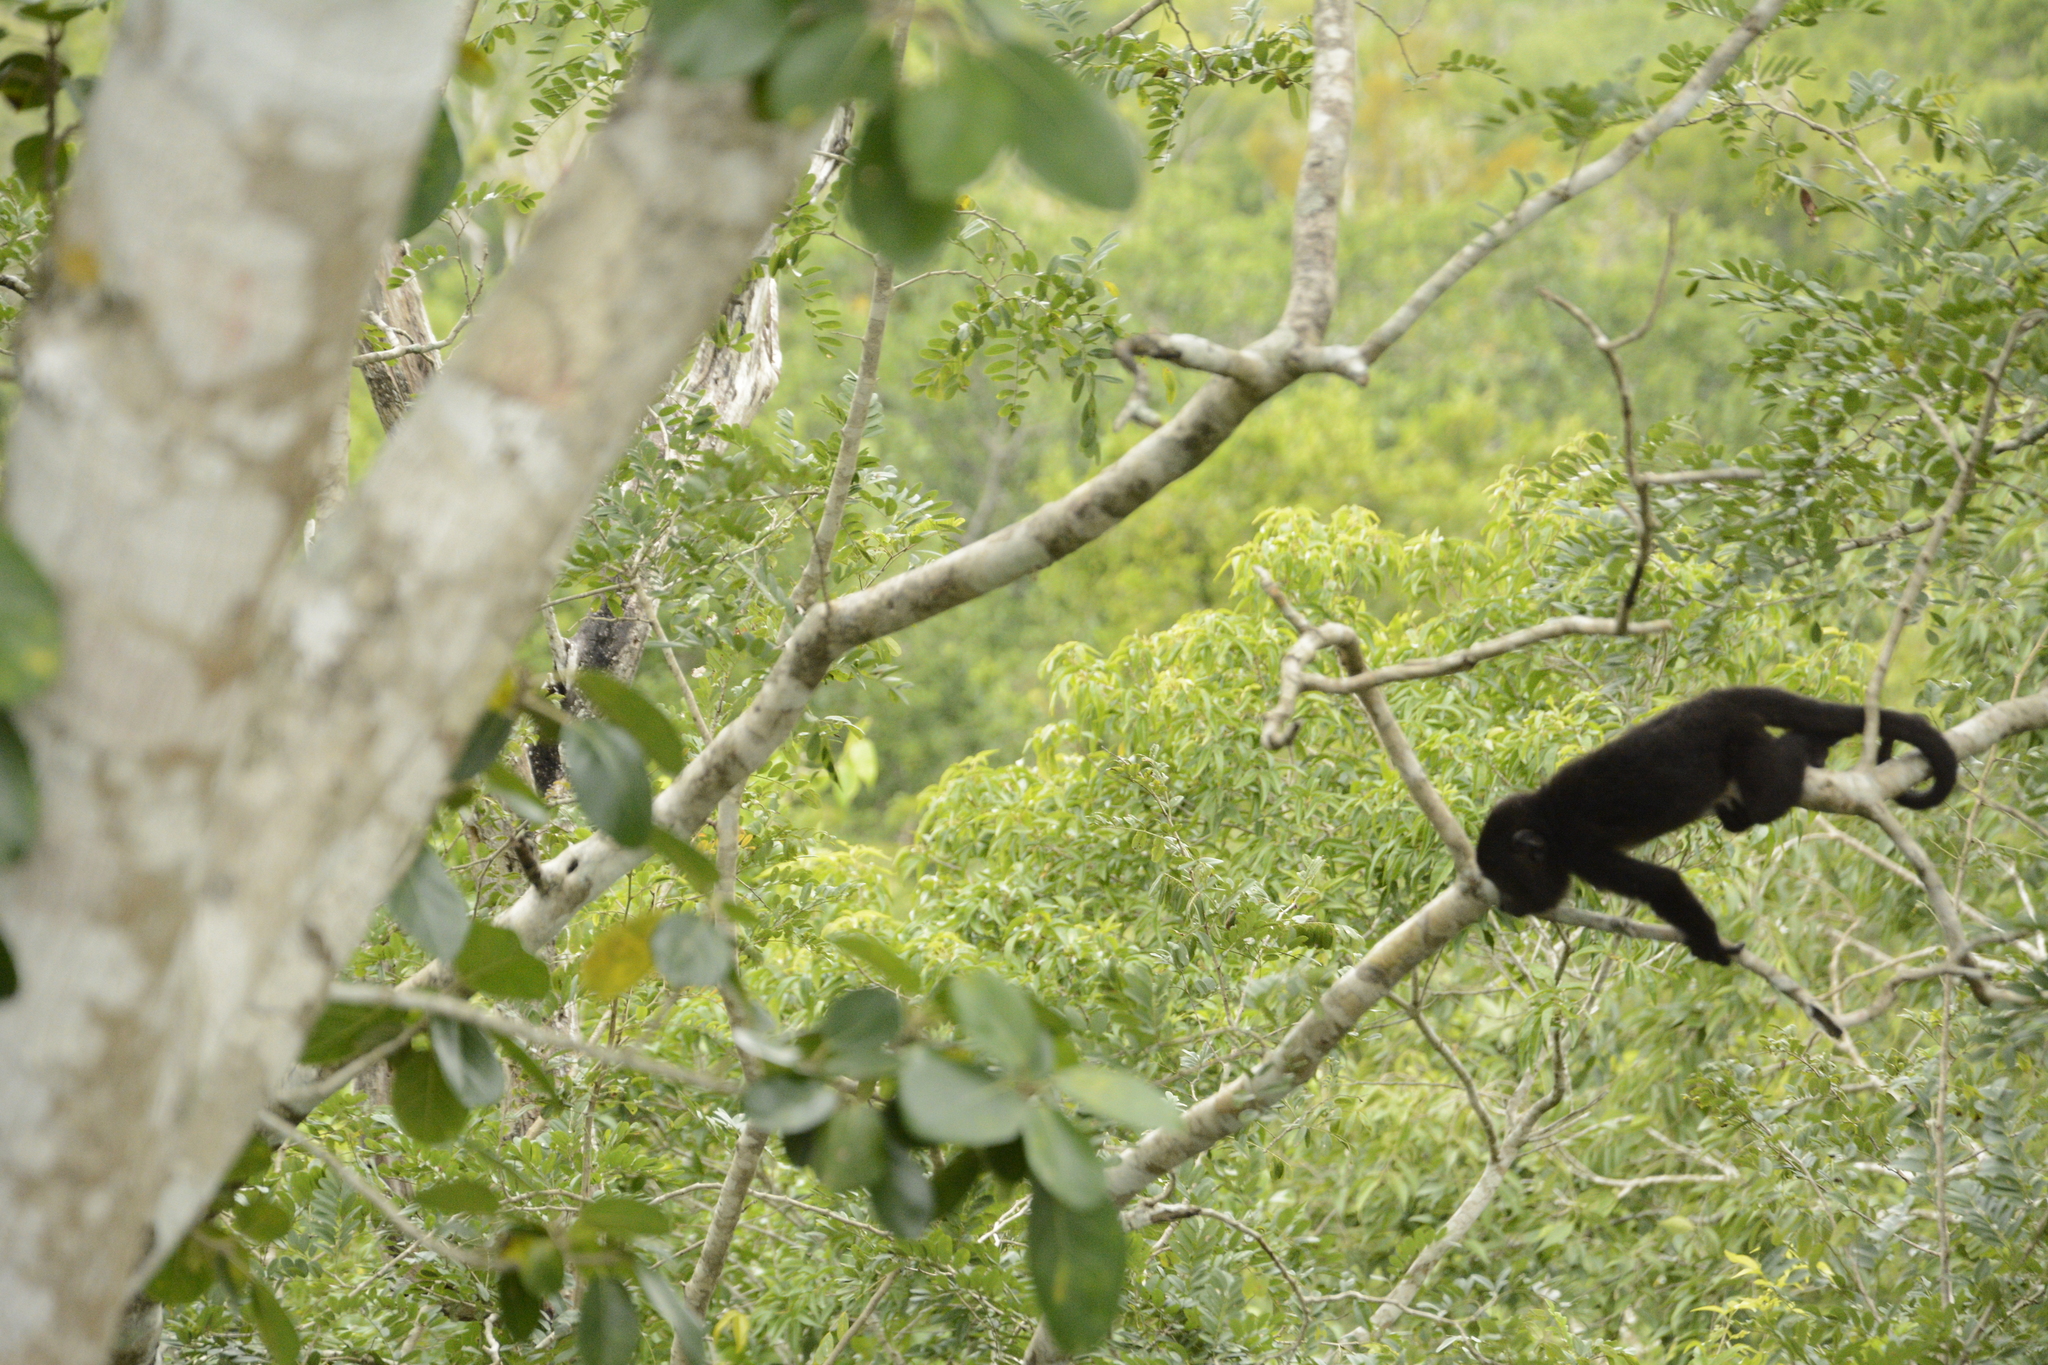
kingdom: Animalia
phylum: Chordata
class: Mammalia
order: Primates
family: Atelidae
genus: Alouatta
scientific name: Alouatta pigra
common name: Guatemalan black howler
